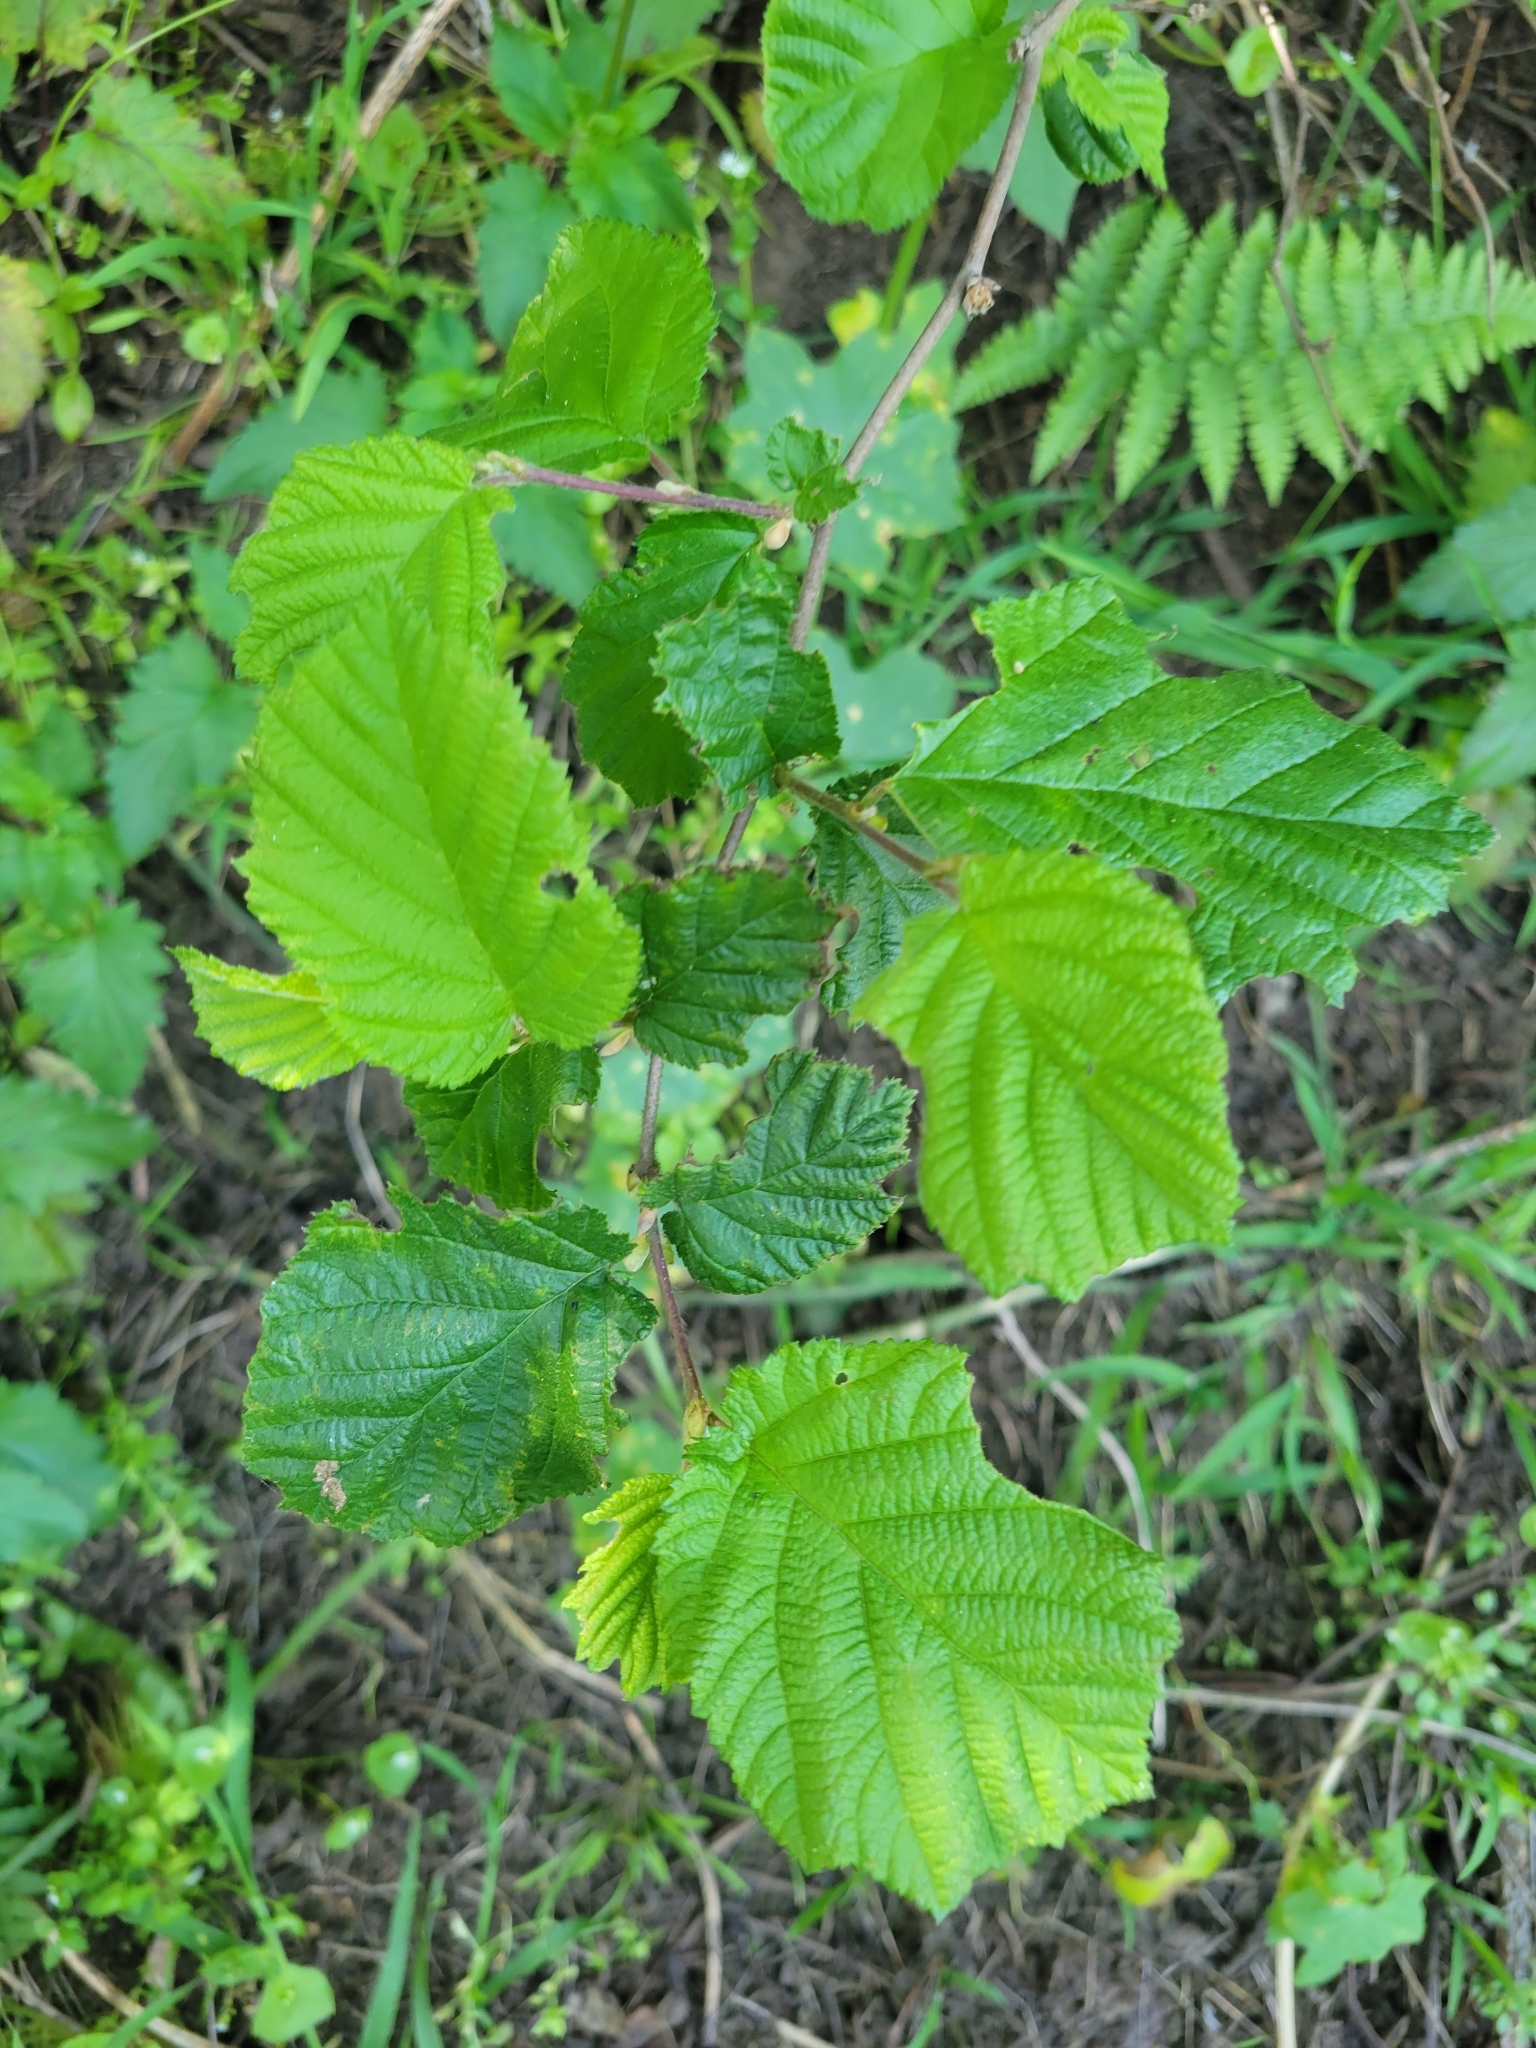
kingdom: Plantae
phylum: Tracheophyta
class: Magnoliopsida
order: Fagales
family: Betulaceae
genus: Corylus
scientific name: Corylus cornuta
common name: Beaked hazel
